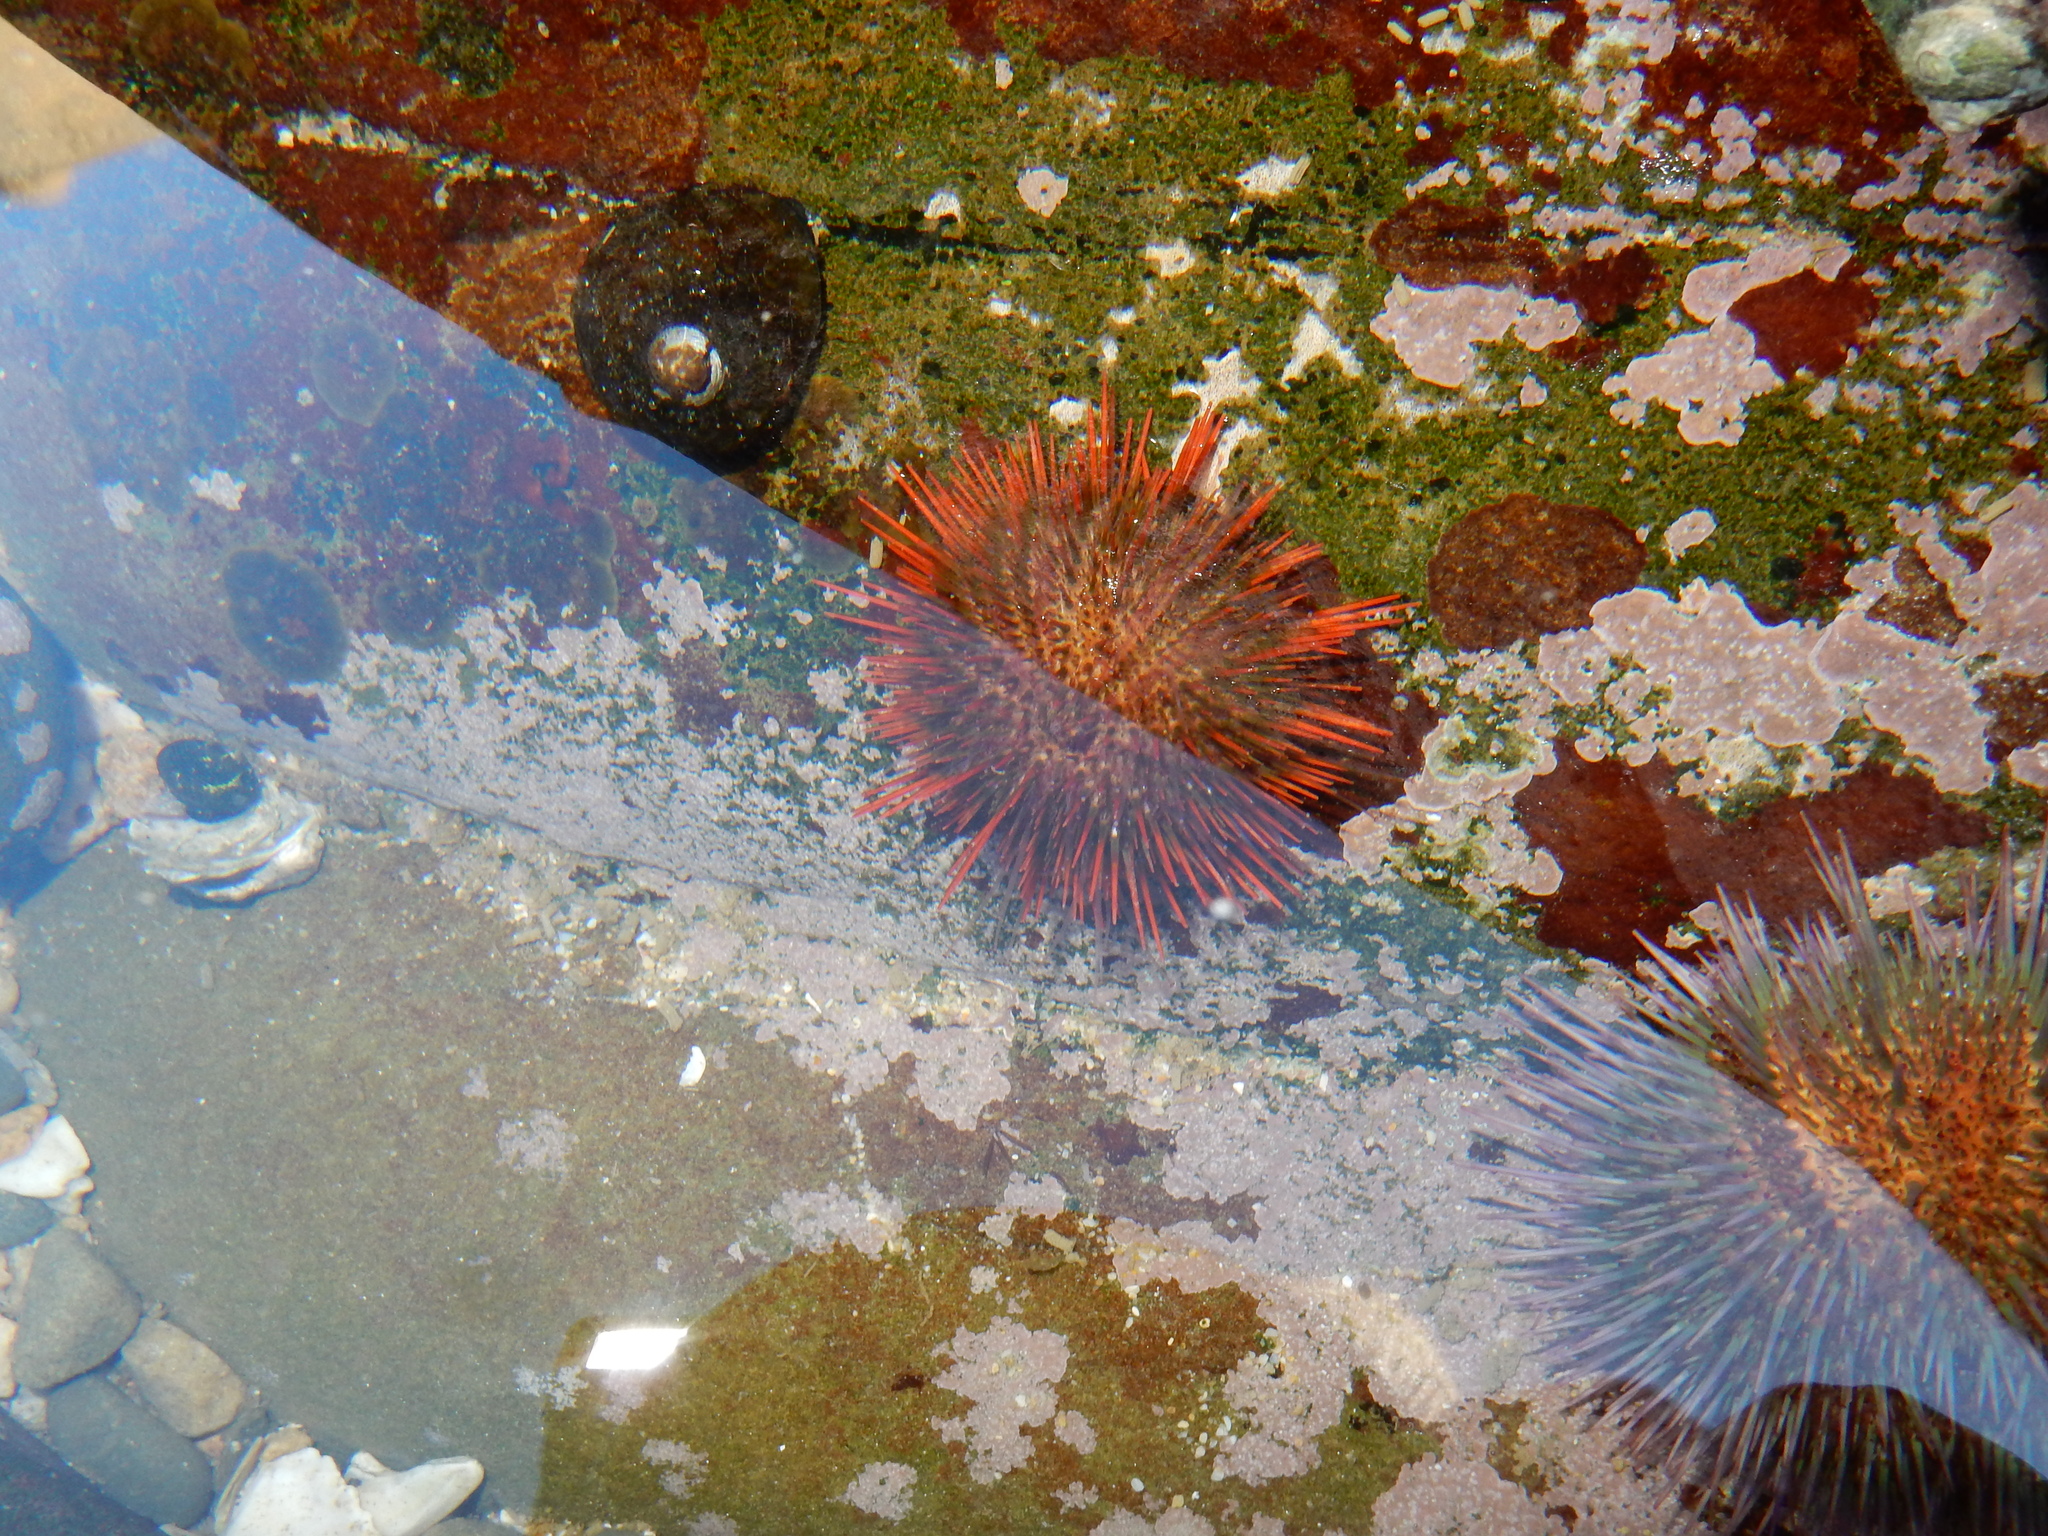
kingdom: Animalia
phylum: Echinodermata
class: Echinoidea
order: Camarodonta
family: Parechinidae
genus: Parechinus
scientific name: Parechinus angulosus
